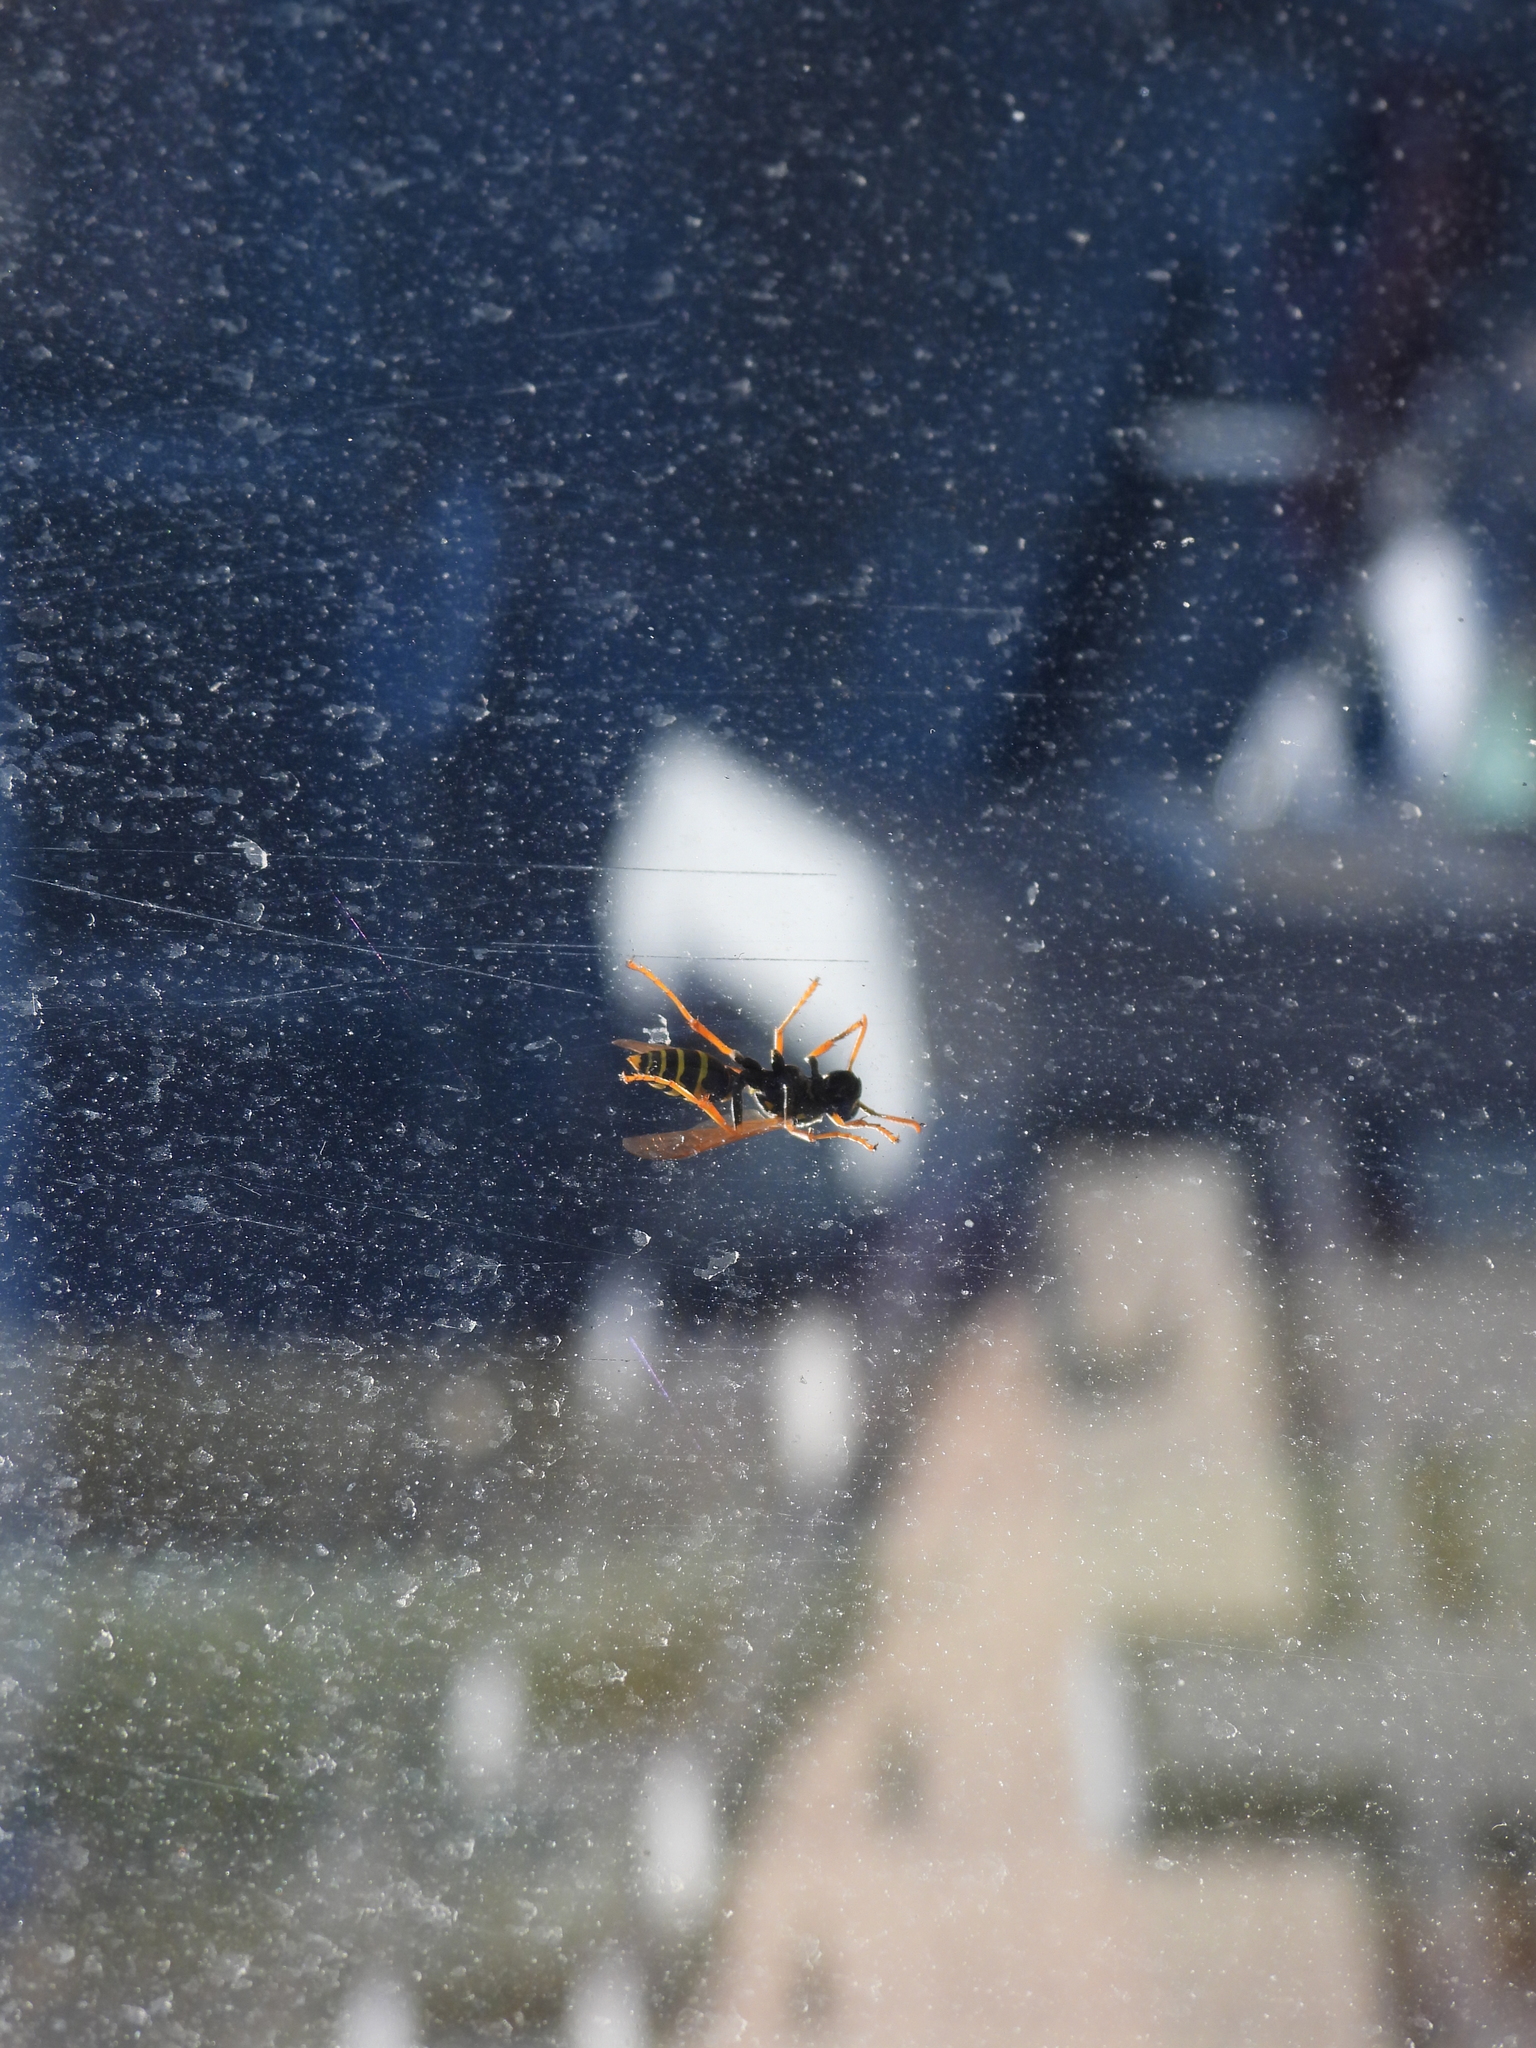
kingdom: Animalia
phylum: Arthropoda
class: Insecta
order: Hymenoptera
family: Eumenidae
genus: Polistes
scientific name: Polistes dominula
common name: Paper wasp
